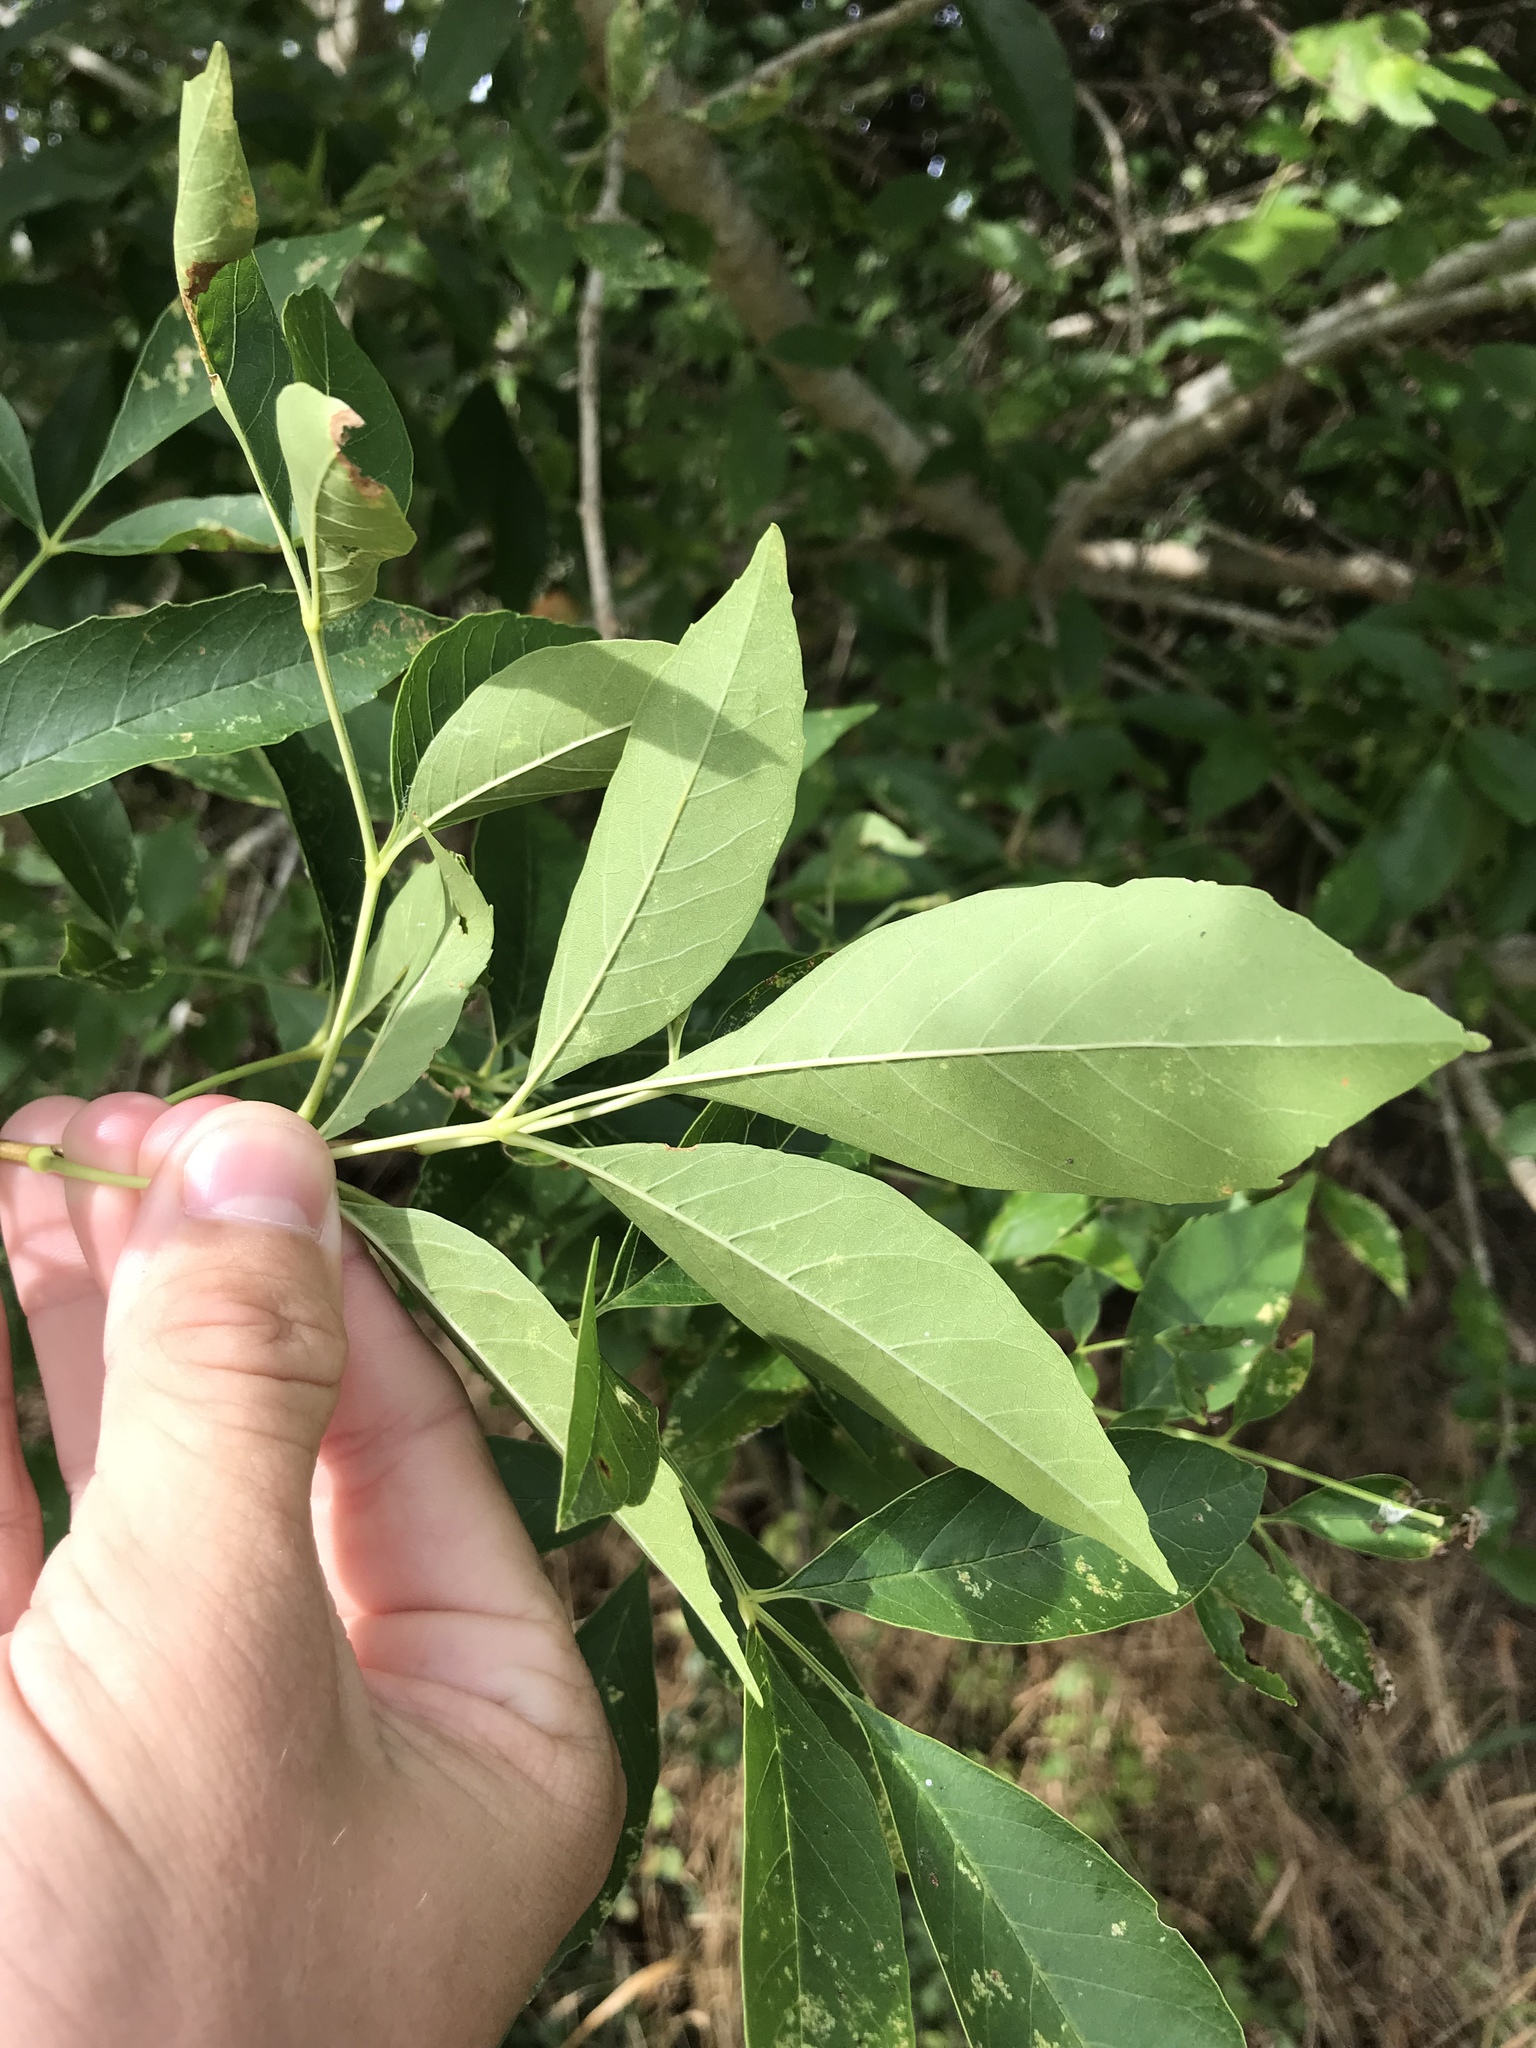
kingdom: Plantae
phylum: Tracheophyta
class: Magnoliopsida
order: Lamiales
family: Oleaceae
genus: Fraxinus
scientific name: Fraxinus pennsylvanica
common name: Green ash
